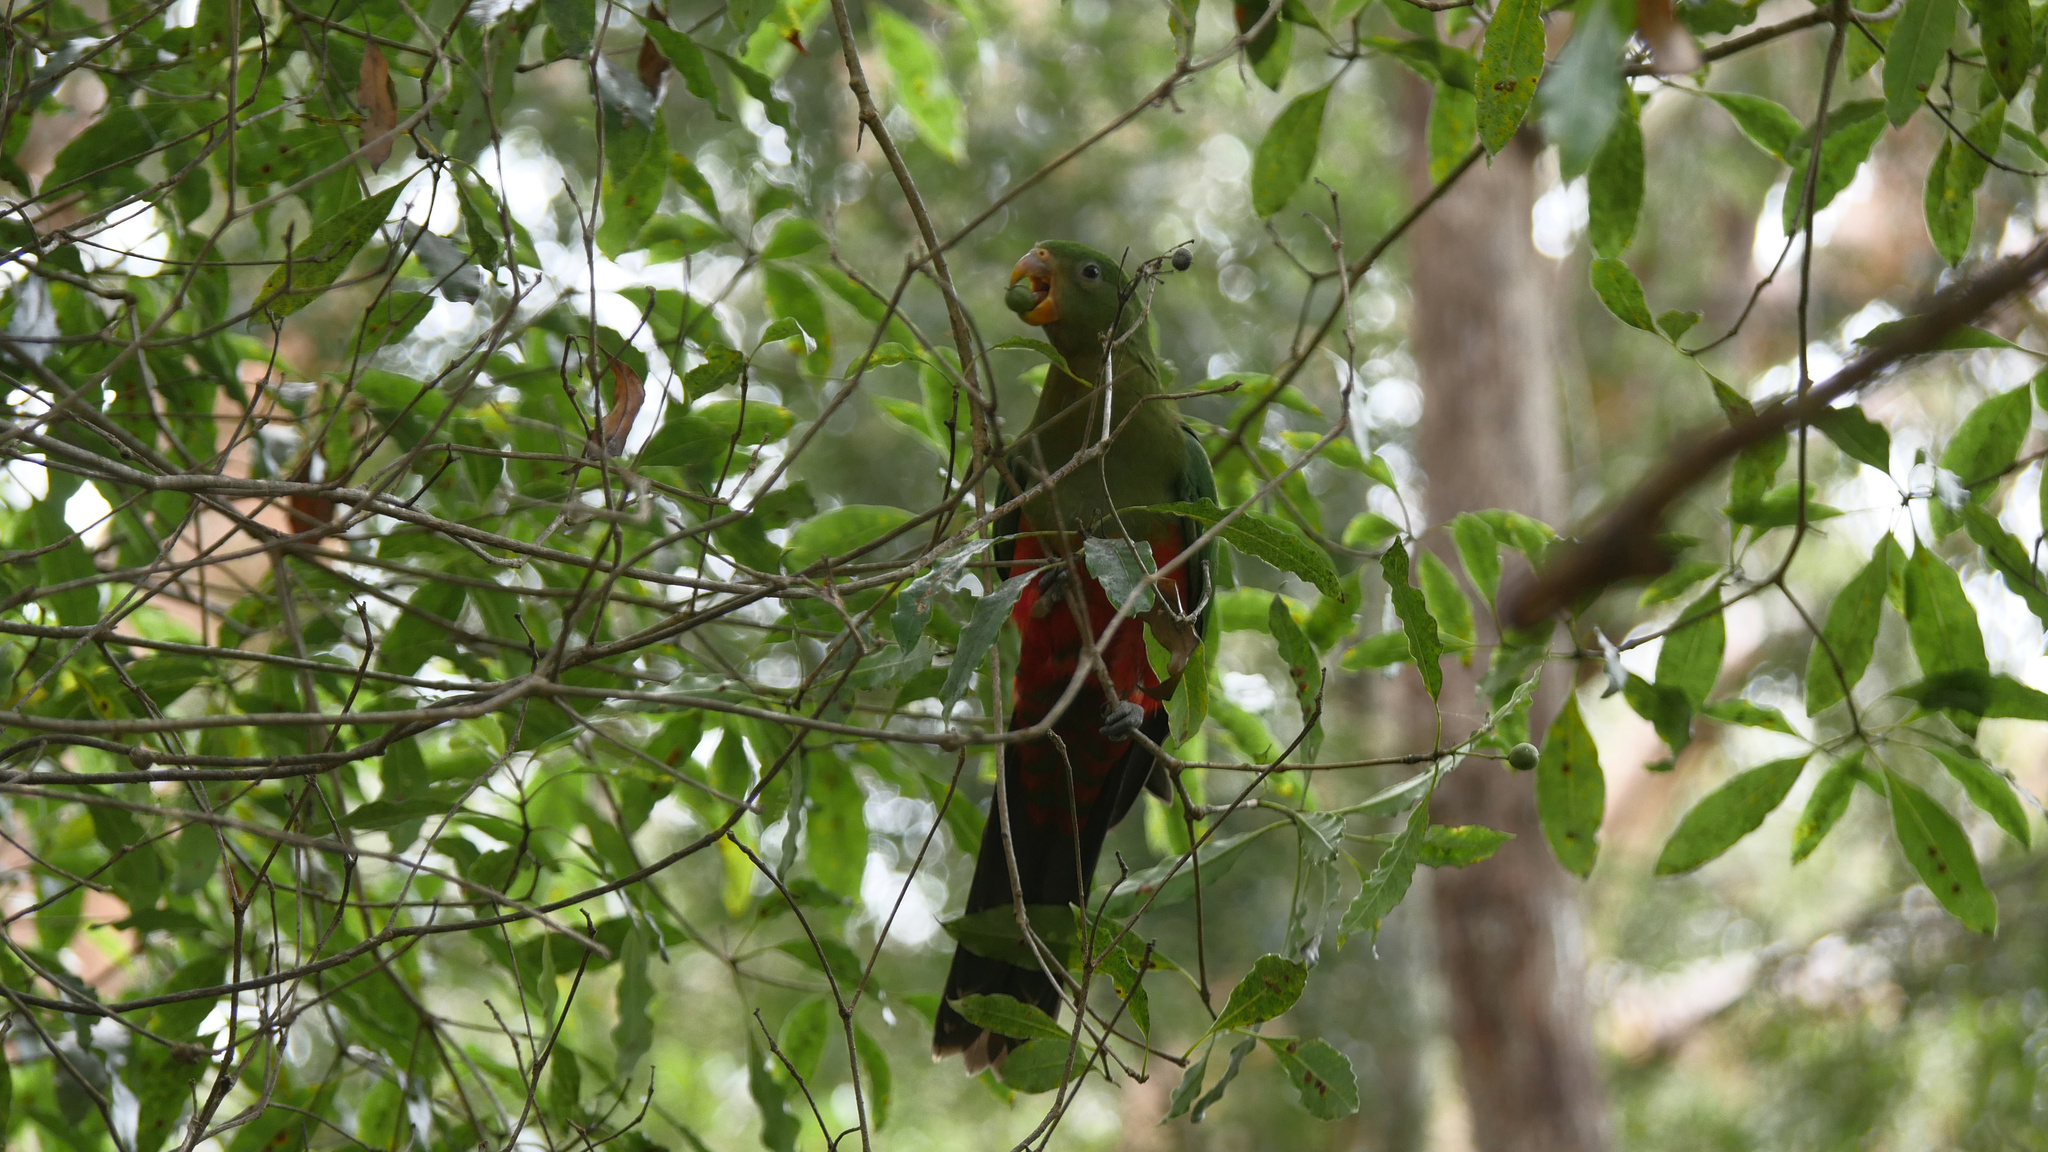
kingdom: Animalia
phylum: Chordata
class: Aves
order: Psittaciformes
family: Psittacidae
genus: Alisterus
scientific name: Alisterus scapularis
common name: Australian king parrot
